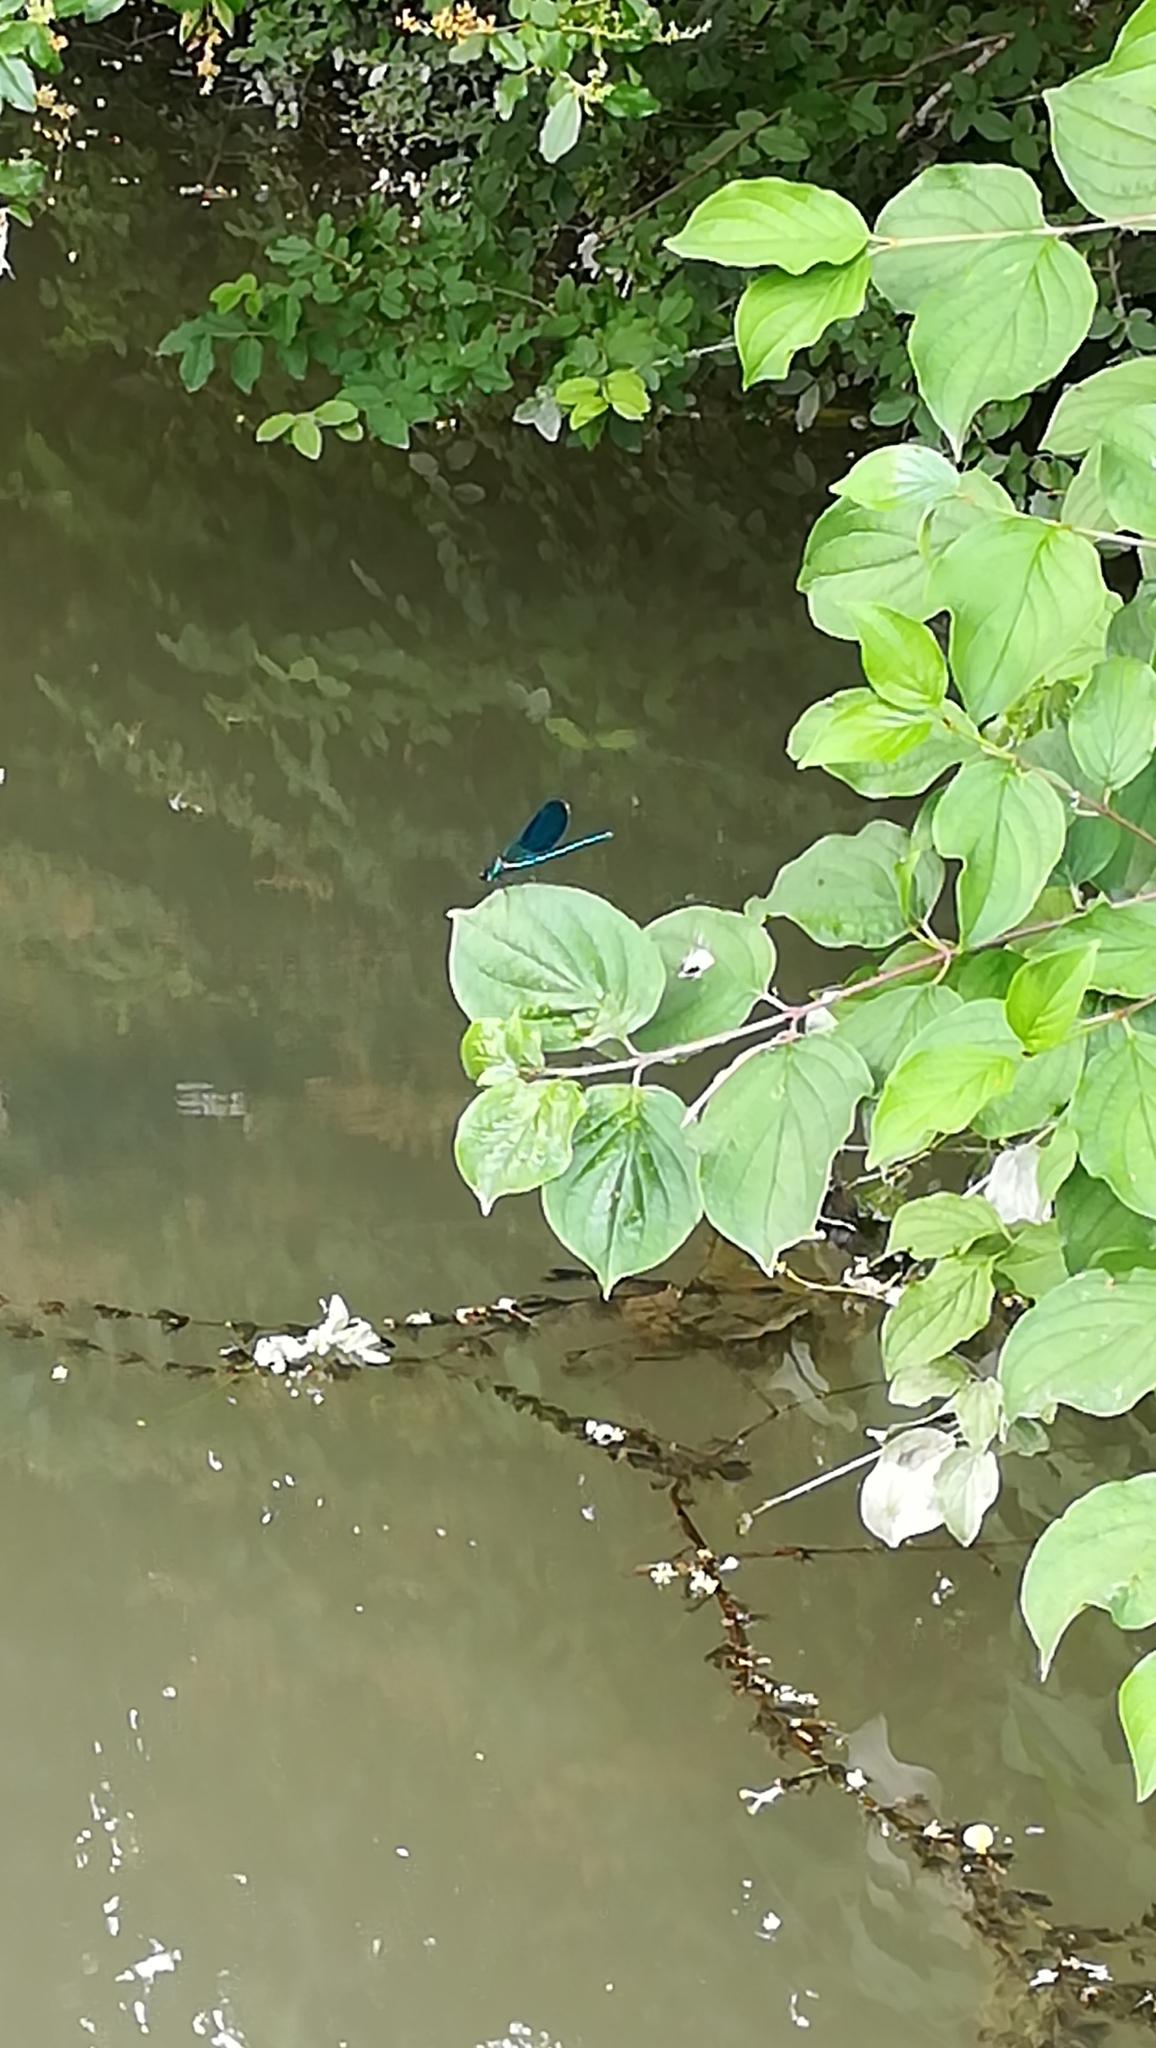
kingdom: Animalia
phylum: Arthropoda
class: Insecta
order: Odonata
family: Calopterygidae
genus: Calopteryx
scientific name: Calopteryx splendens
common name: Banded demoiselle
